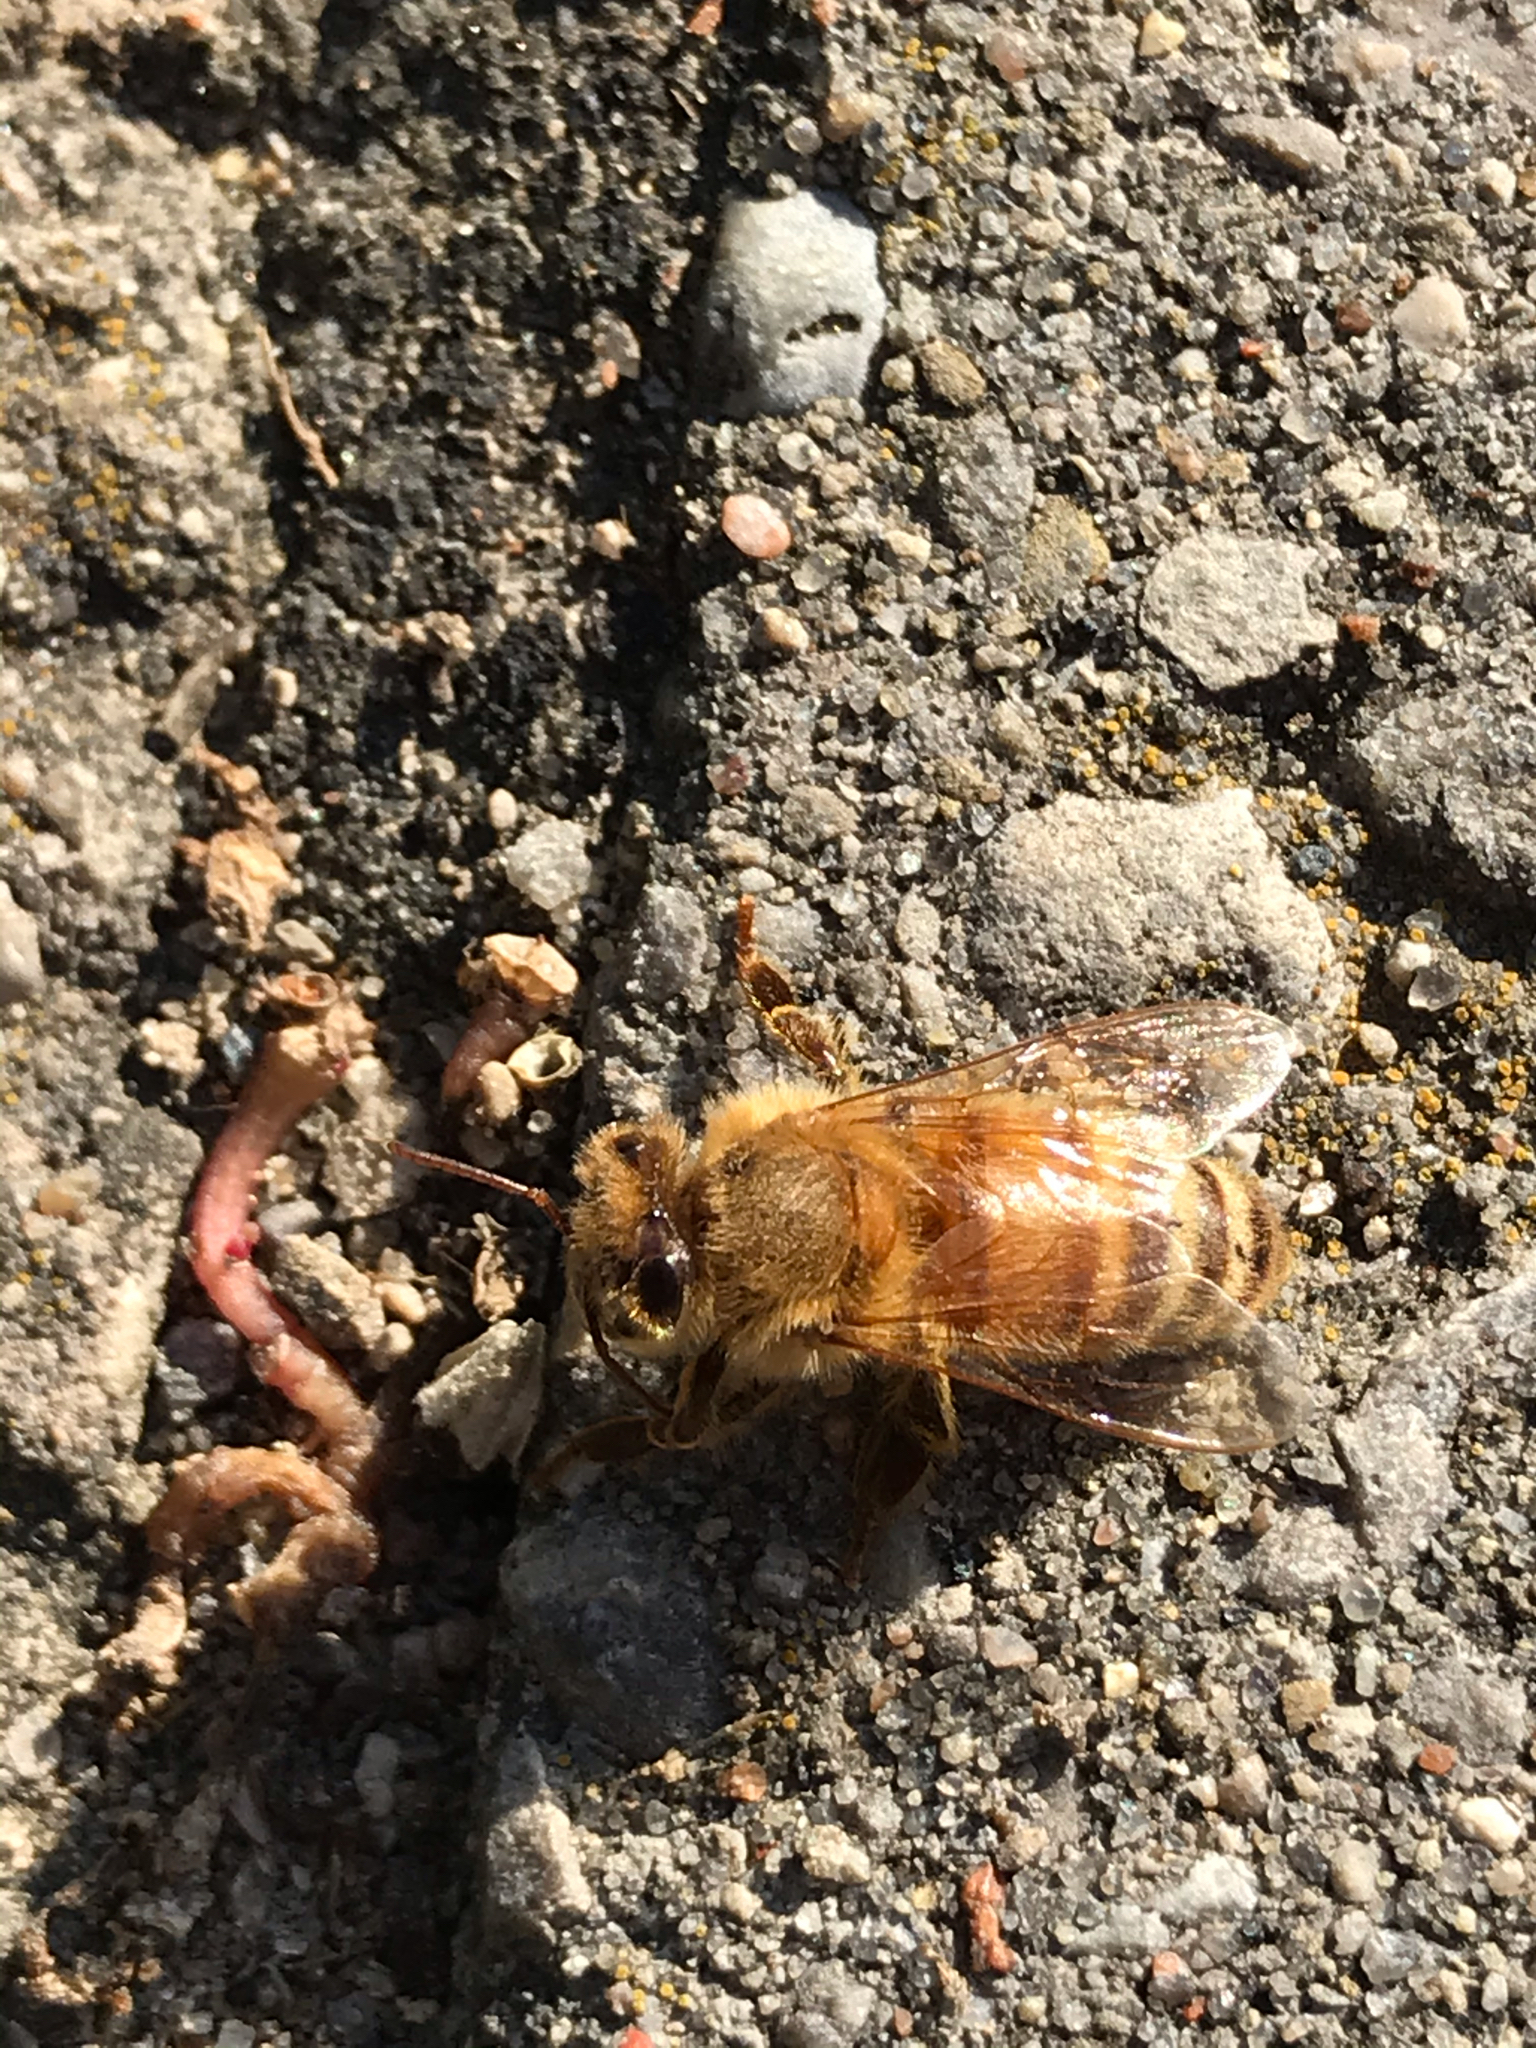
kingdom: Animalia
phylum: Arthropoda
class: Insecta
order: Hymenoptera
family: Apidae
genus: Apis
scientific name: Apis mellifera
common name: Honey bee
